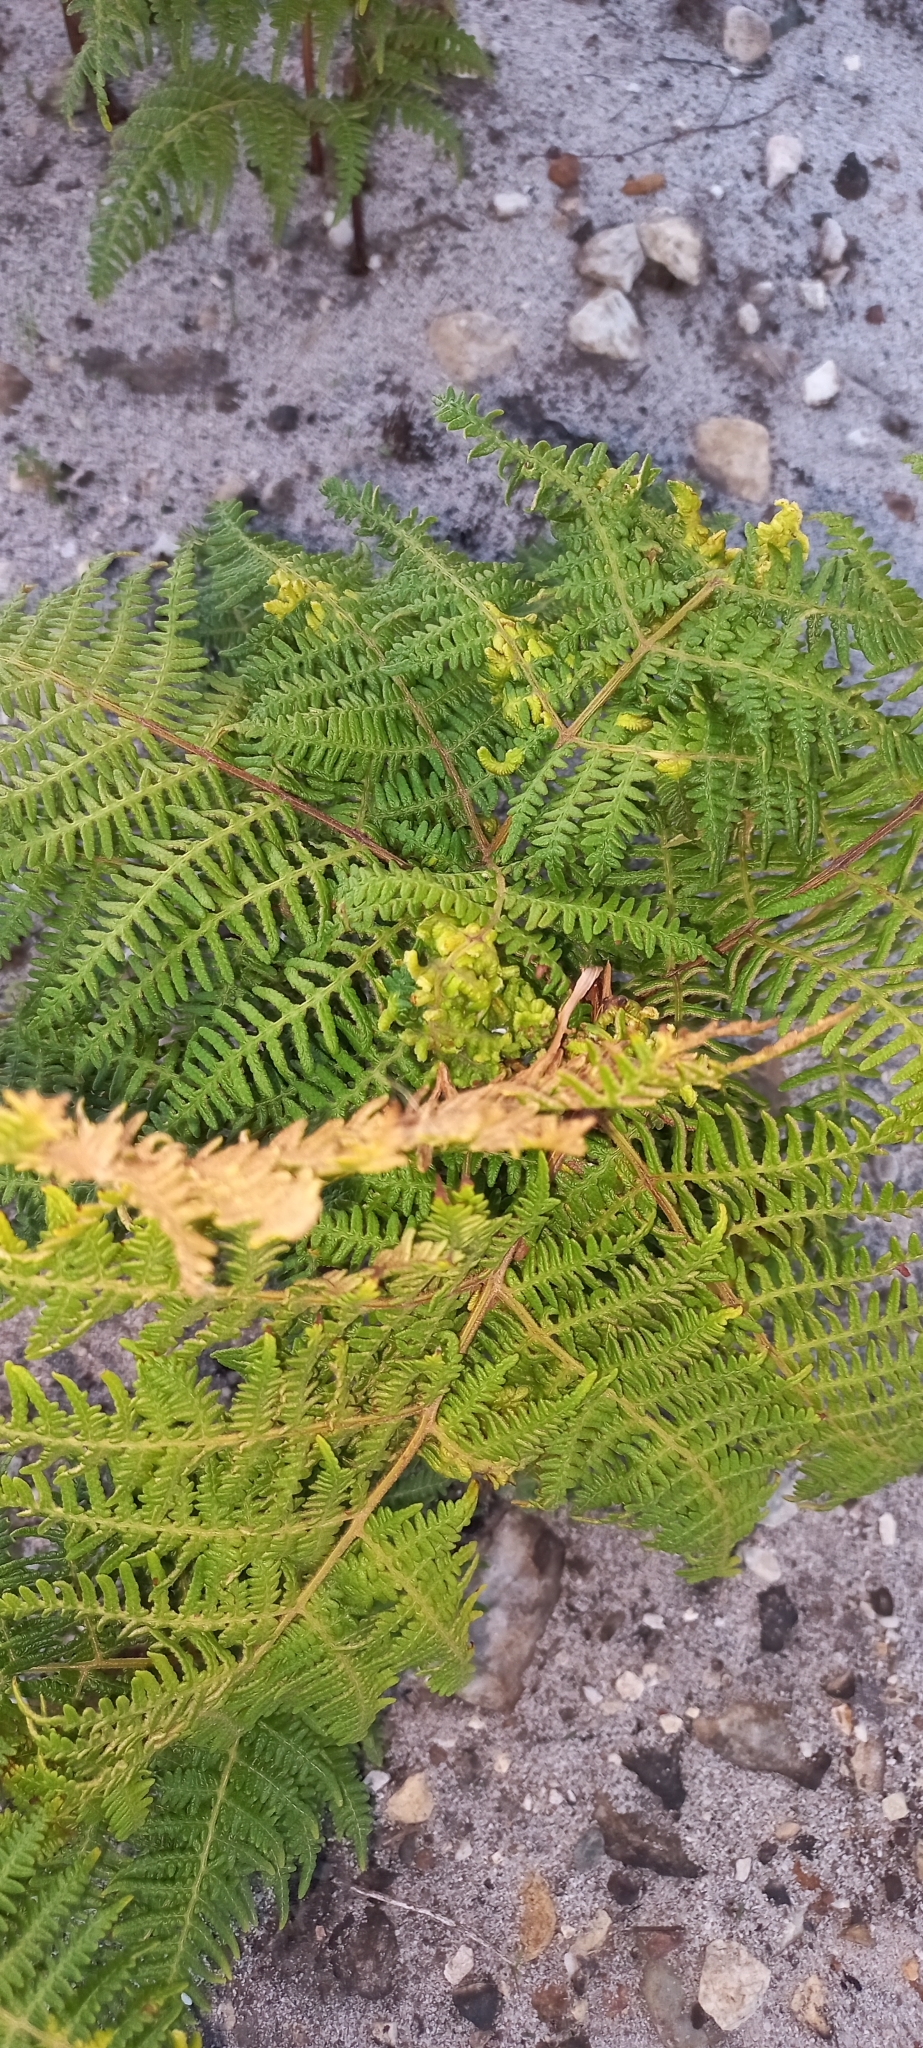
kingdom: Plantae
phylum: Tracheophyta
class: Polypodiopsida
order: Polypodiales
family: Dennstaedtiaceae
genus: Pteridium
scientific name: Pteridium aquilinum
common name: Bracken
